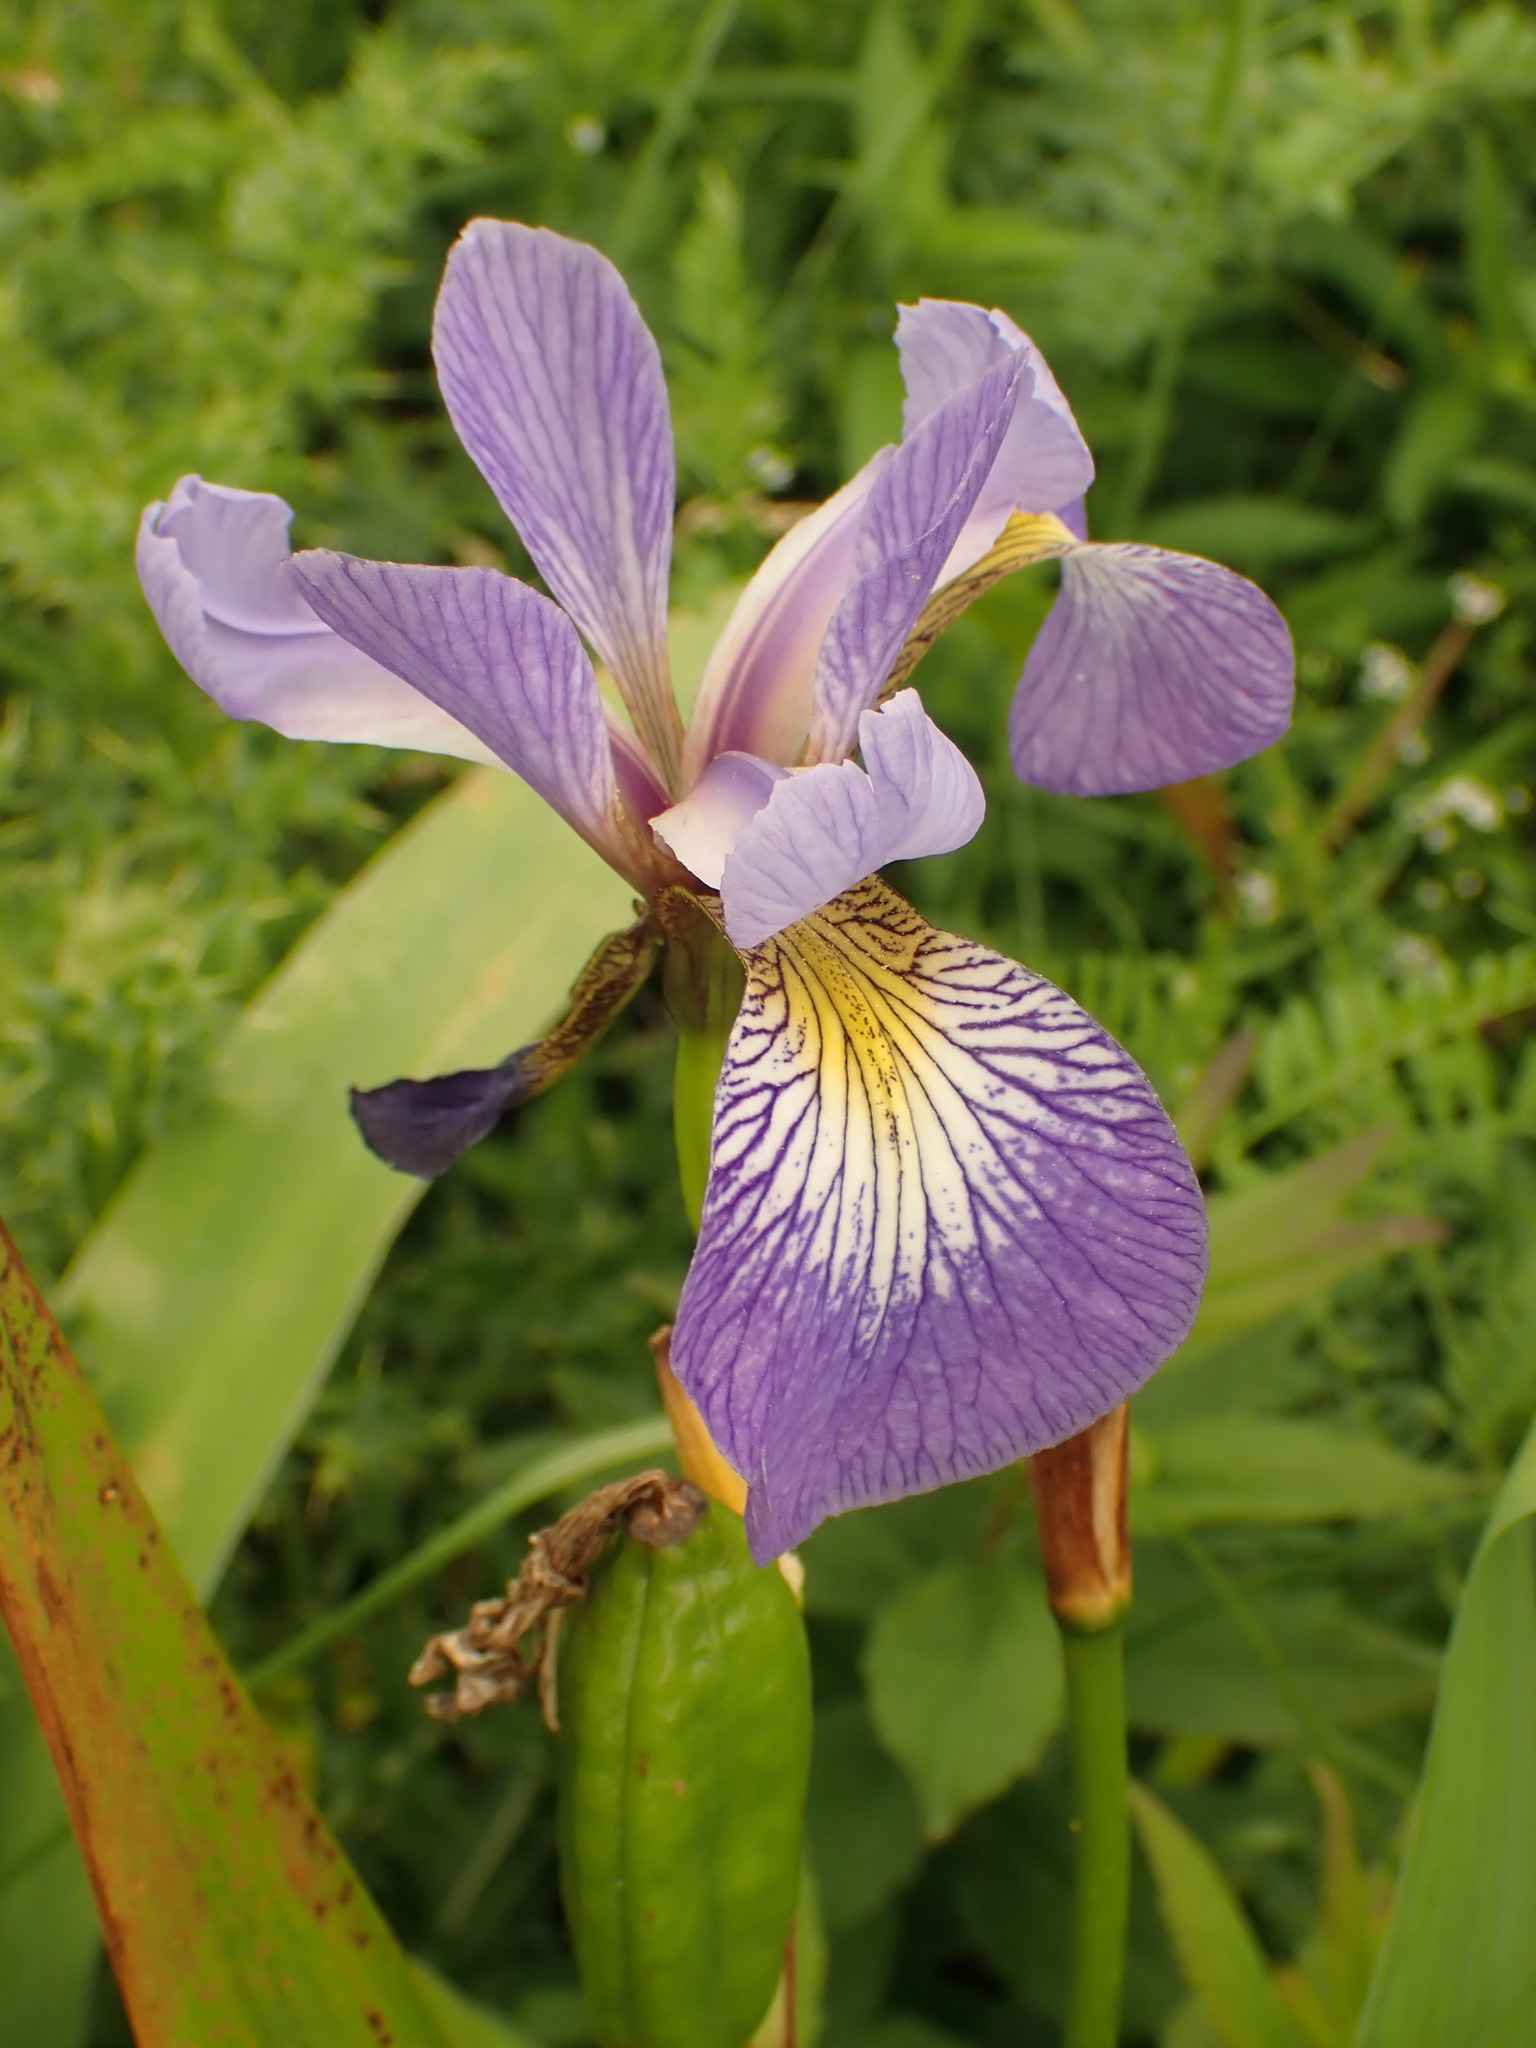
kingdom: Plantae
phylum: Tracheophyta
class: Liliopsida
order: Asparagales
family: Iridaceae
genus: Iris
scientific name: Iris versicolor
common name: Purple iris
